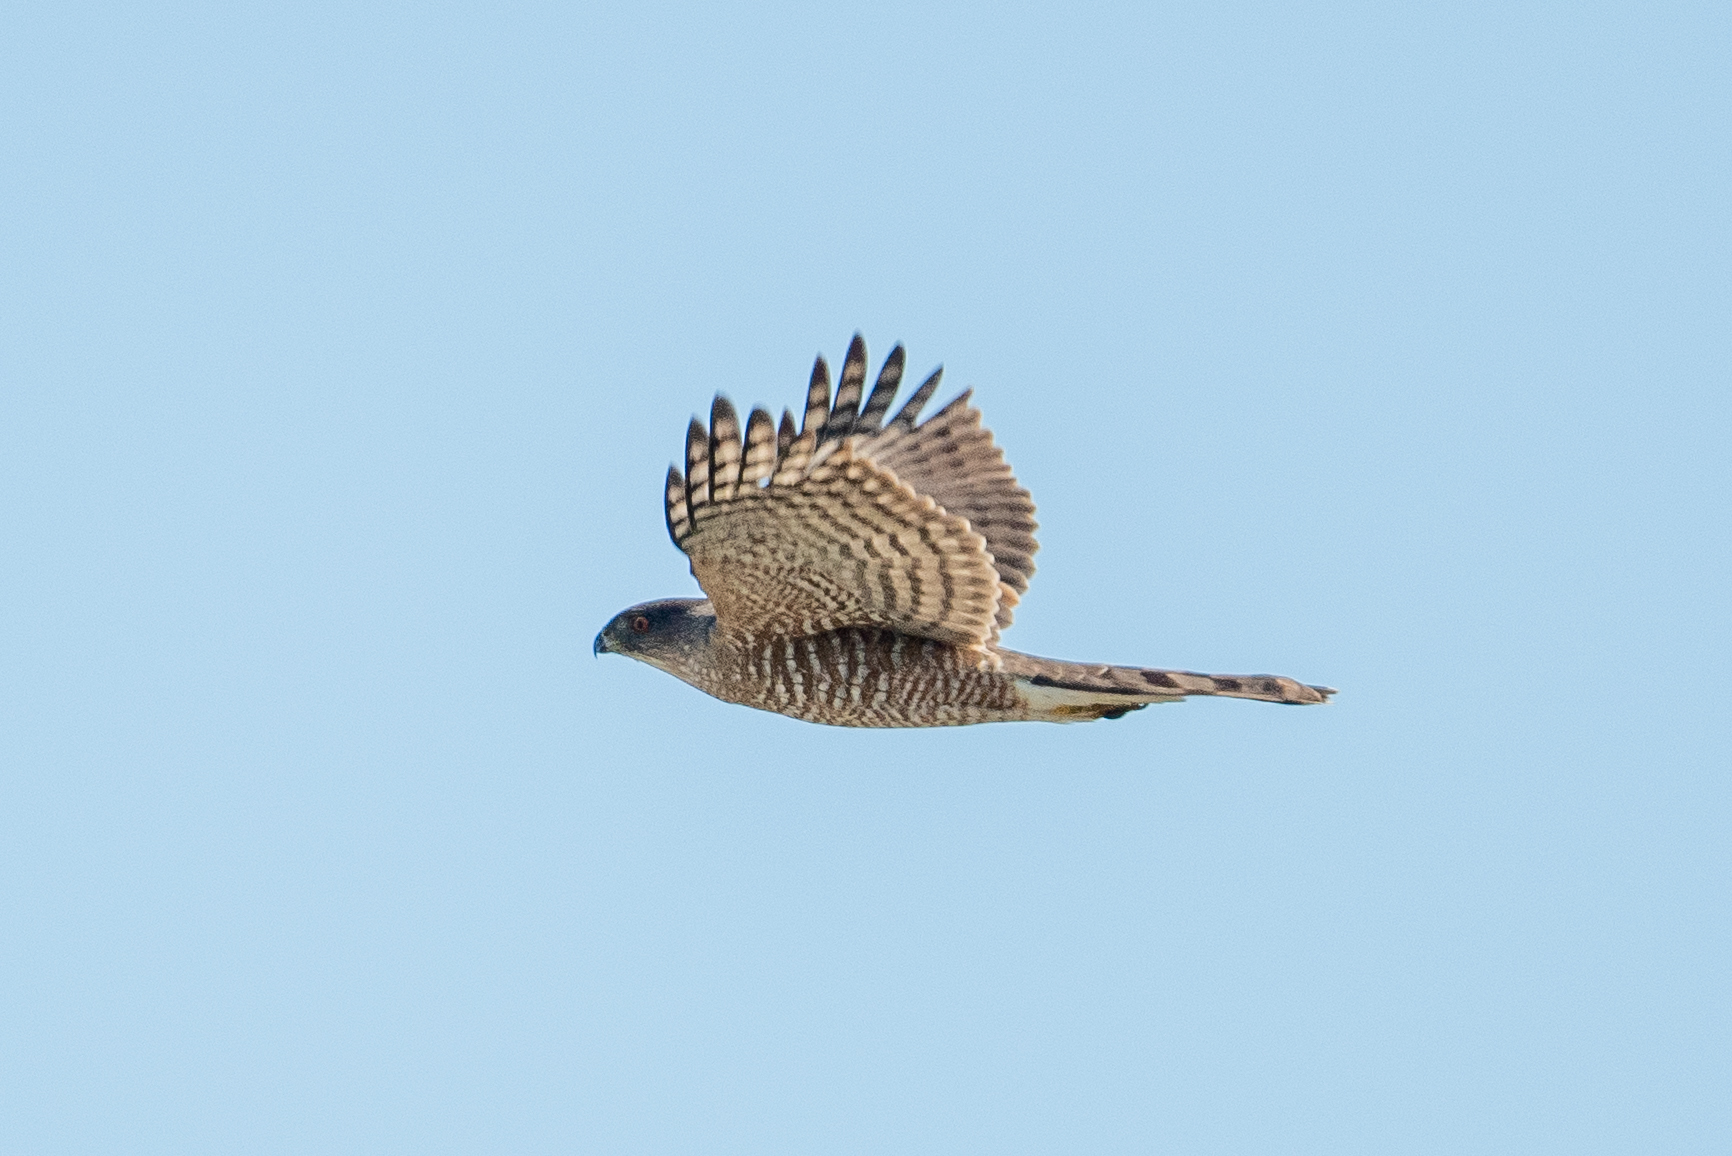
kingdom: Animalia
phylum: Chordata
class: Aves
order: Accipitriformes
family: Accipitridae
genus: Accipiter
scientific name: Accipiter cooperii
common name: Cooper's hawk
